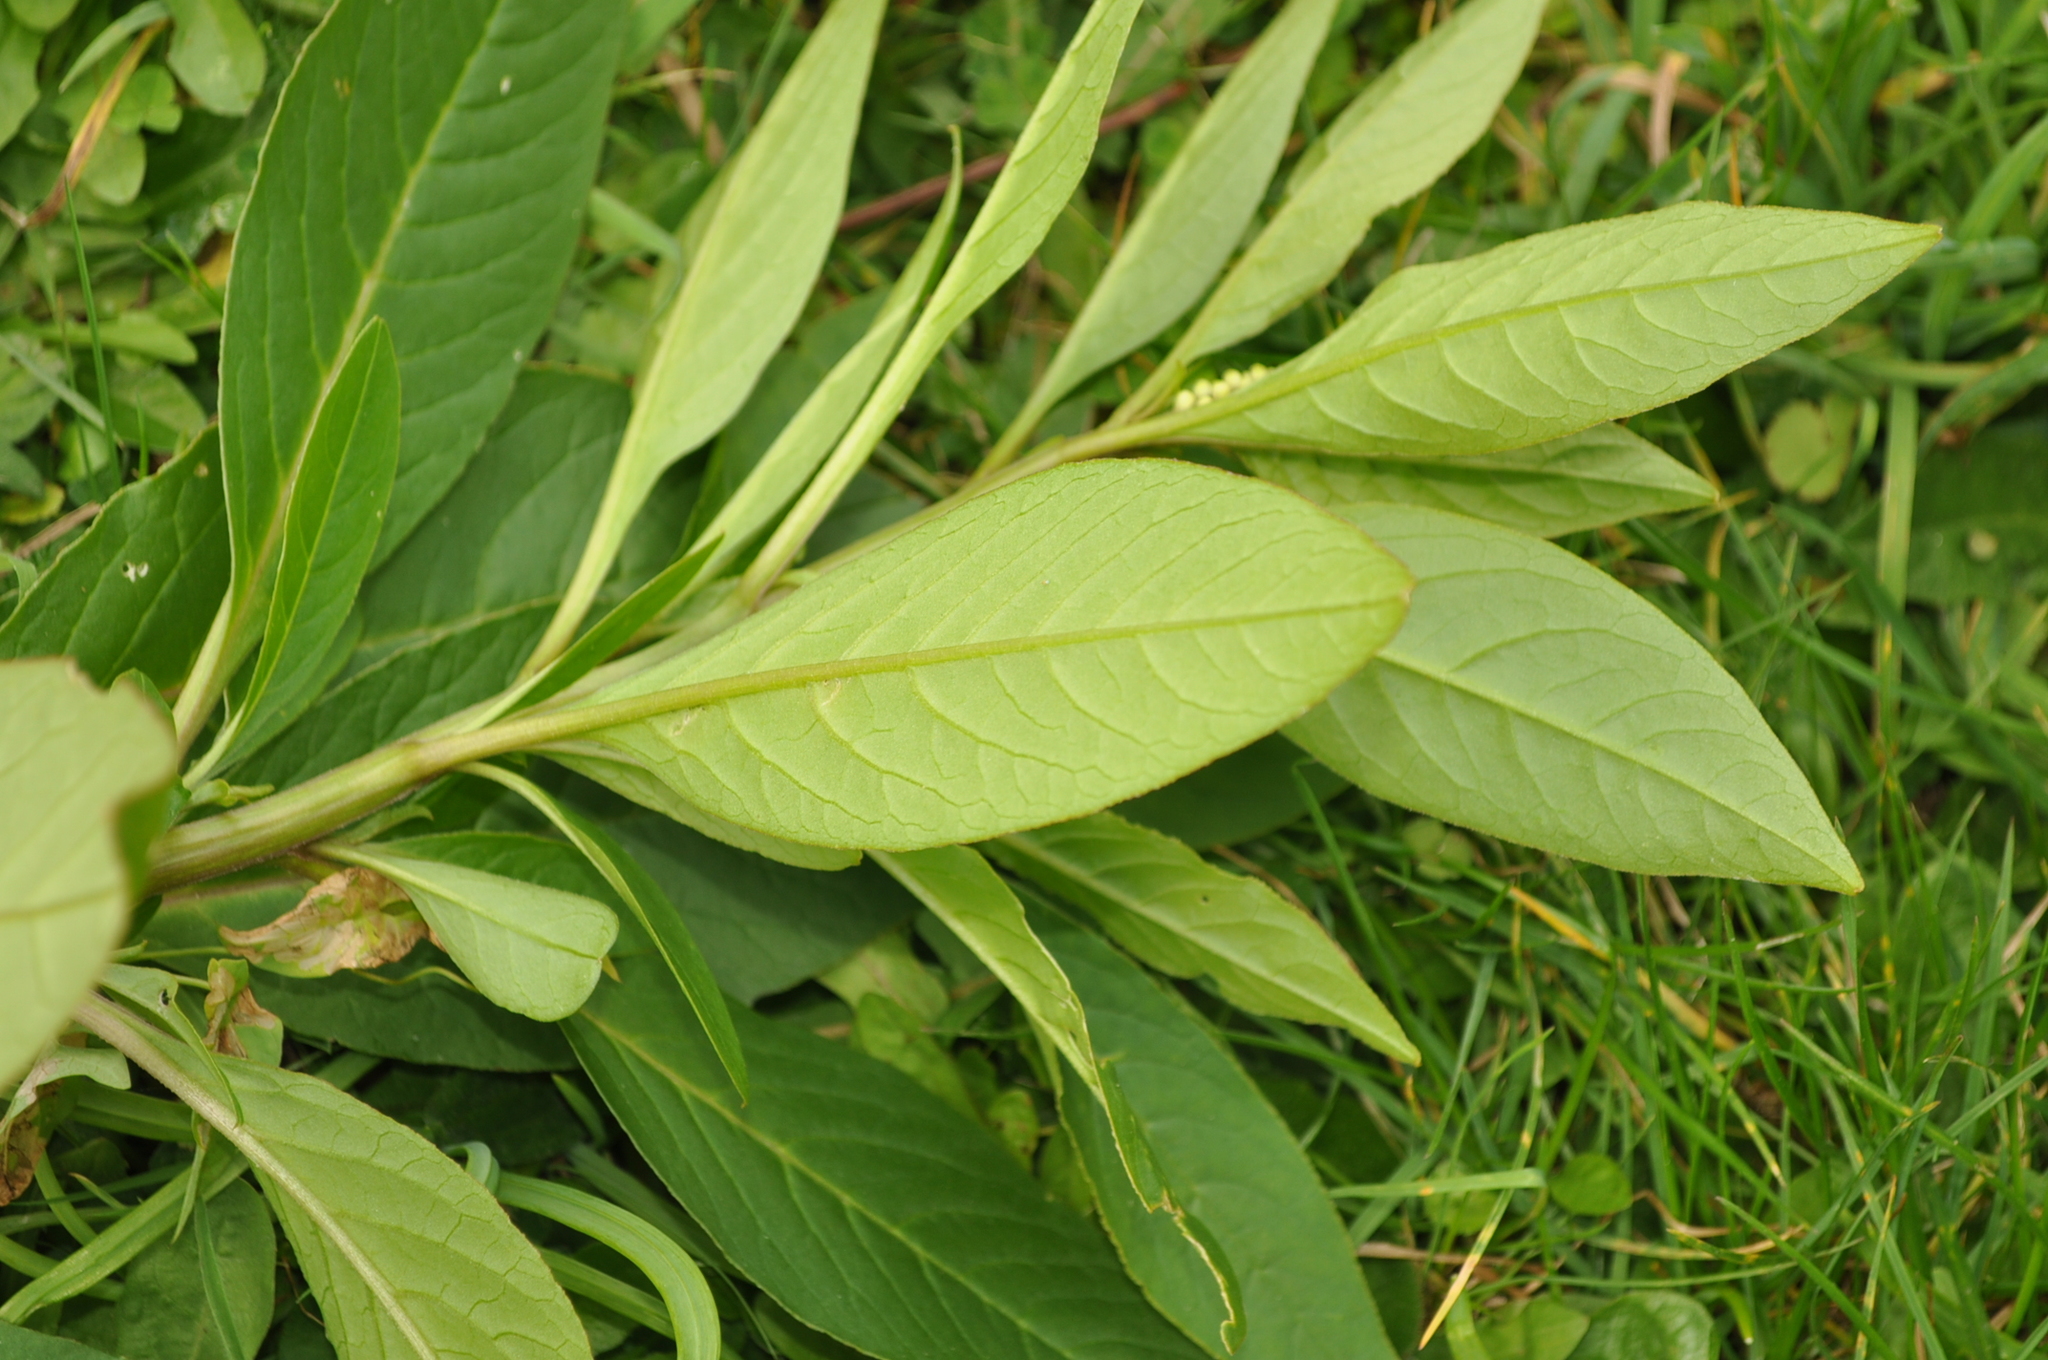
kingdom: Plantae
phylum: Tracheophyta
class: Magnoliopsida
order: Caryophyllales
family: Phytolaccaceae
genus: Phytolacca
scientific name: Phytolacca icosandra
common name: Button pokeweed
